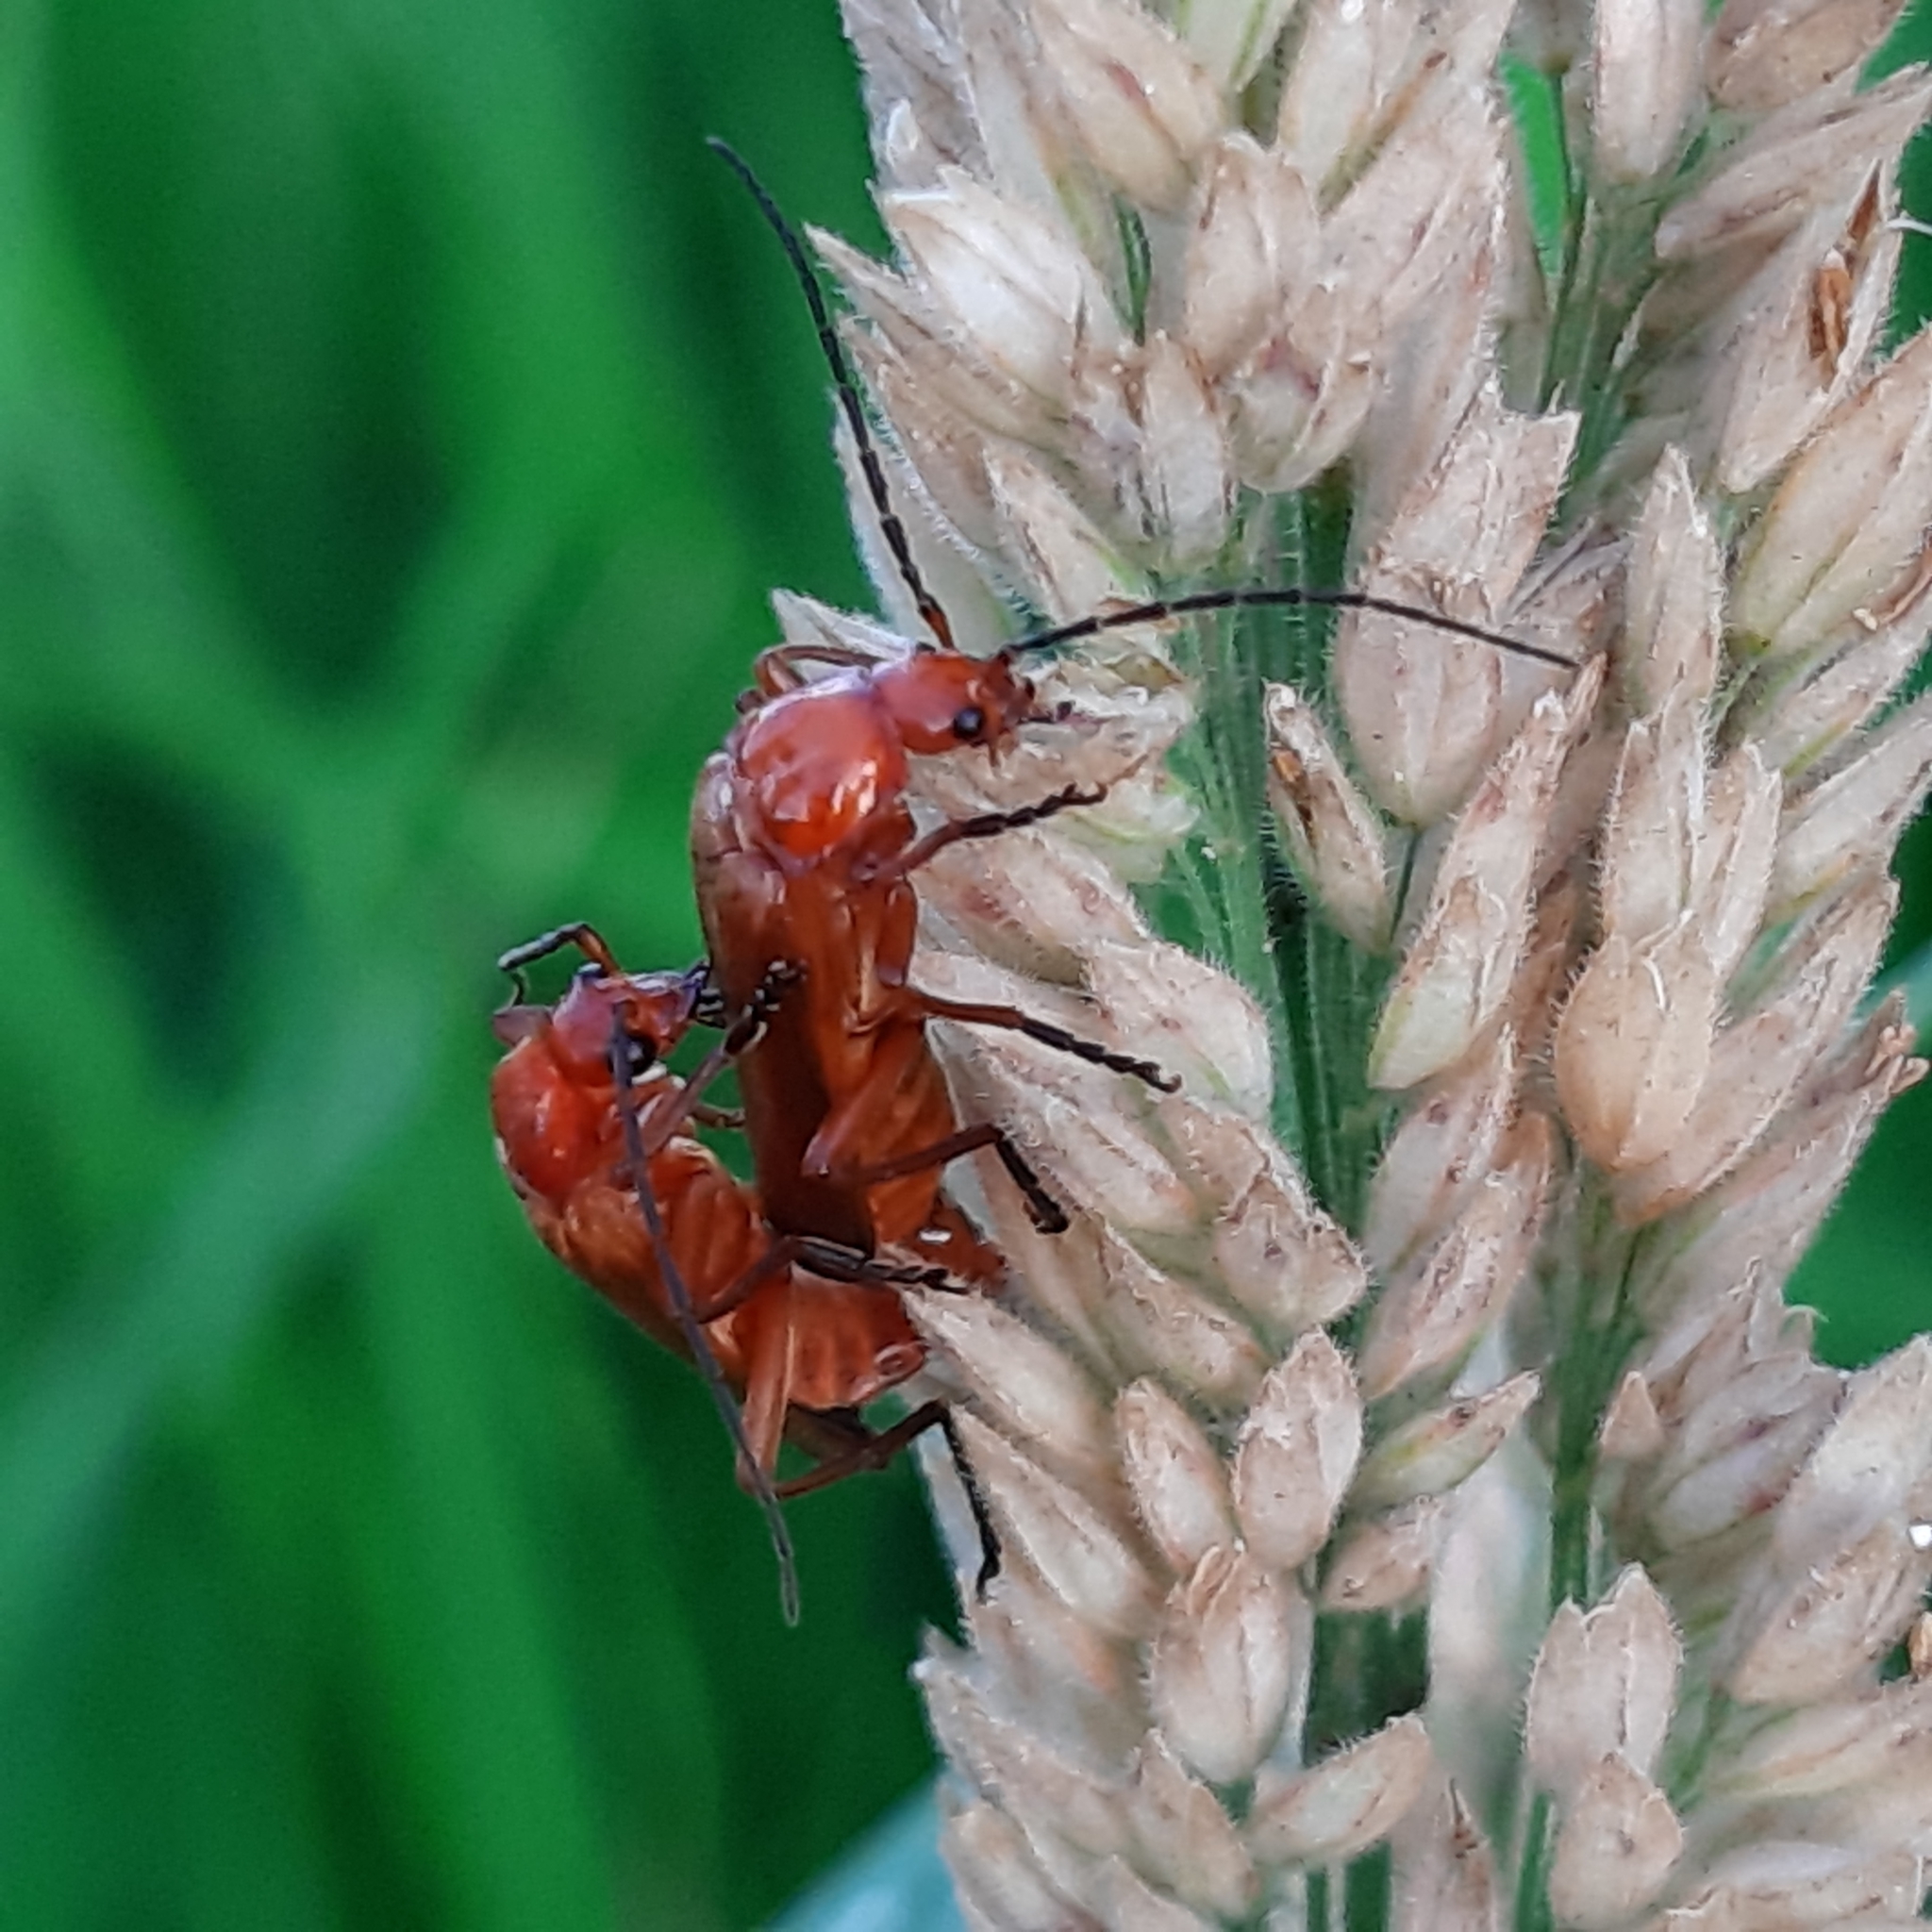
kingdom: Animalia
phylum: Arthropoda
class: Insecta
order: Coleoptera
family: Cantharidae
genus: Rhagonycha
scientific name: Rhagonycha fulva
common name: Common red soldier beetle
